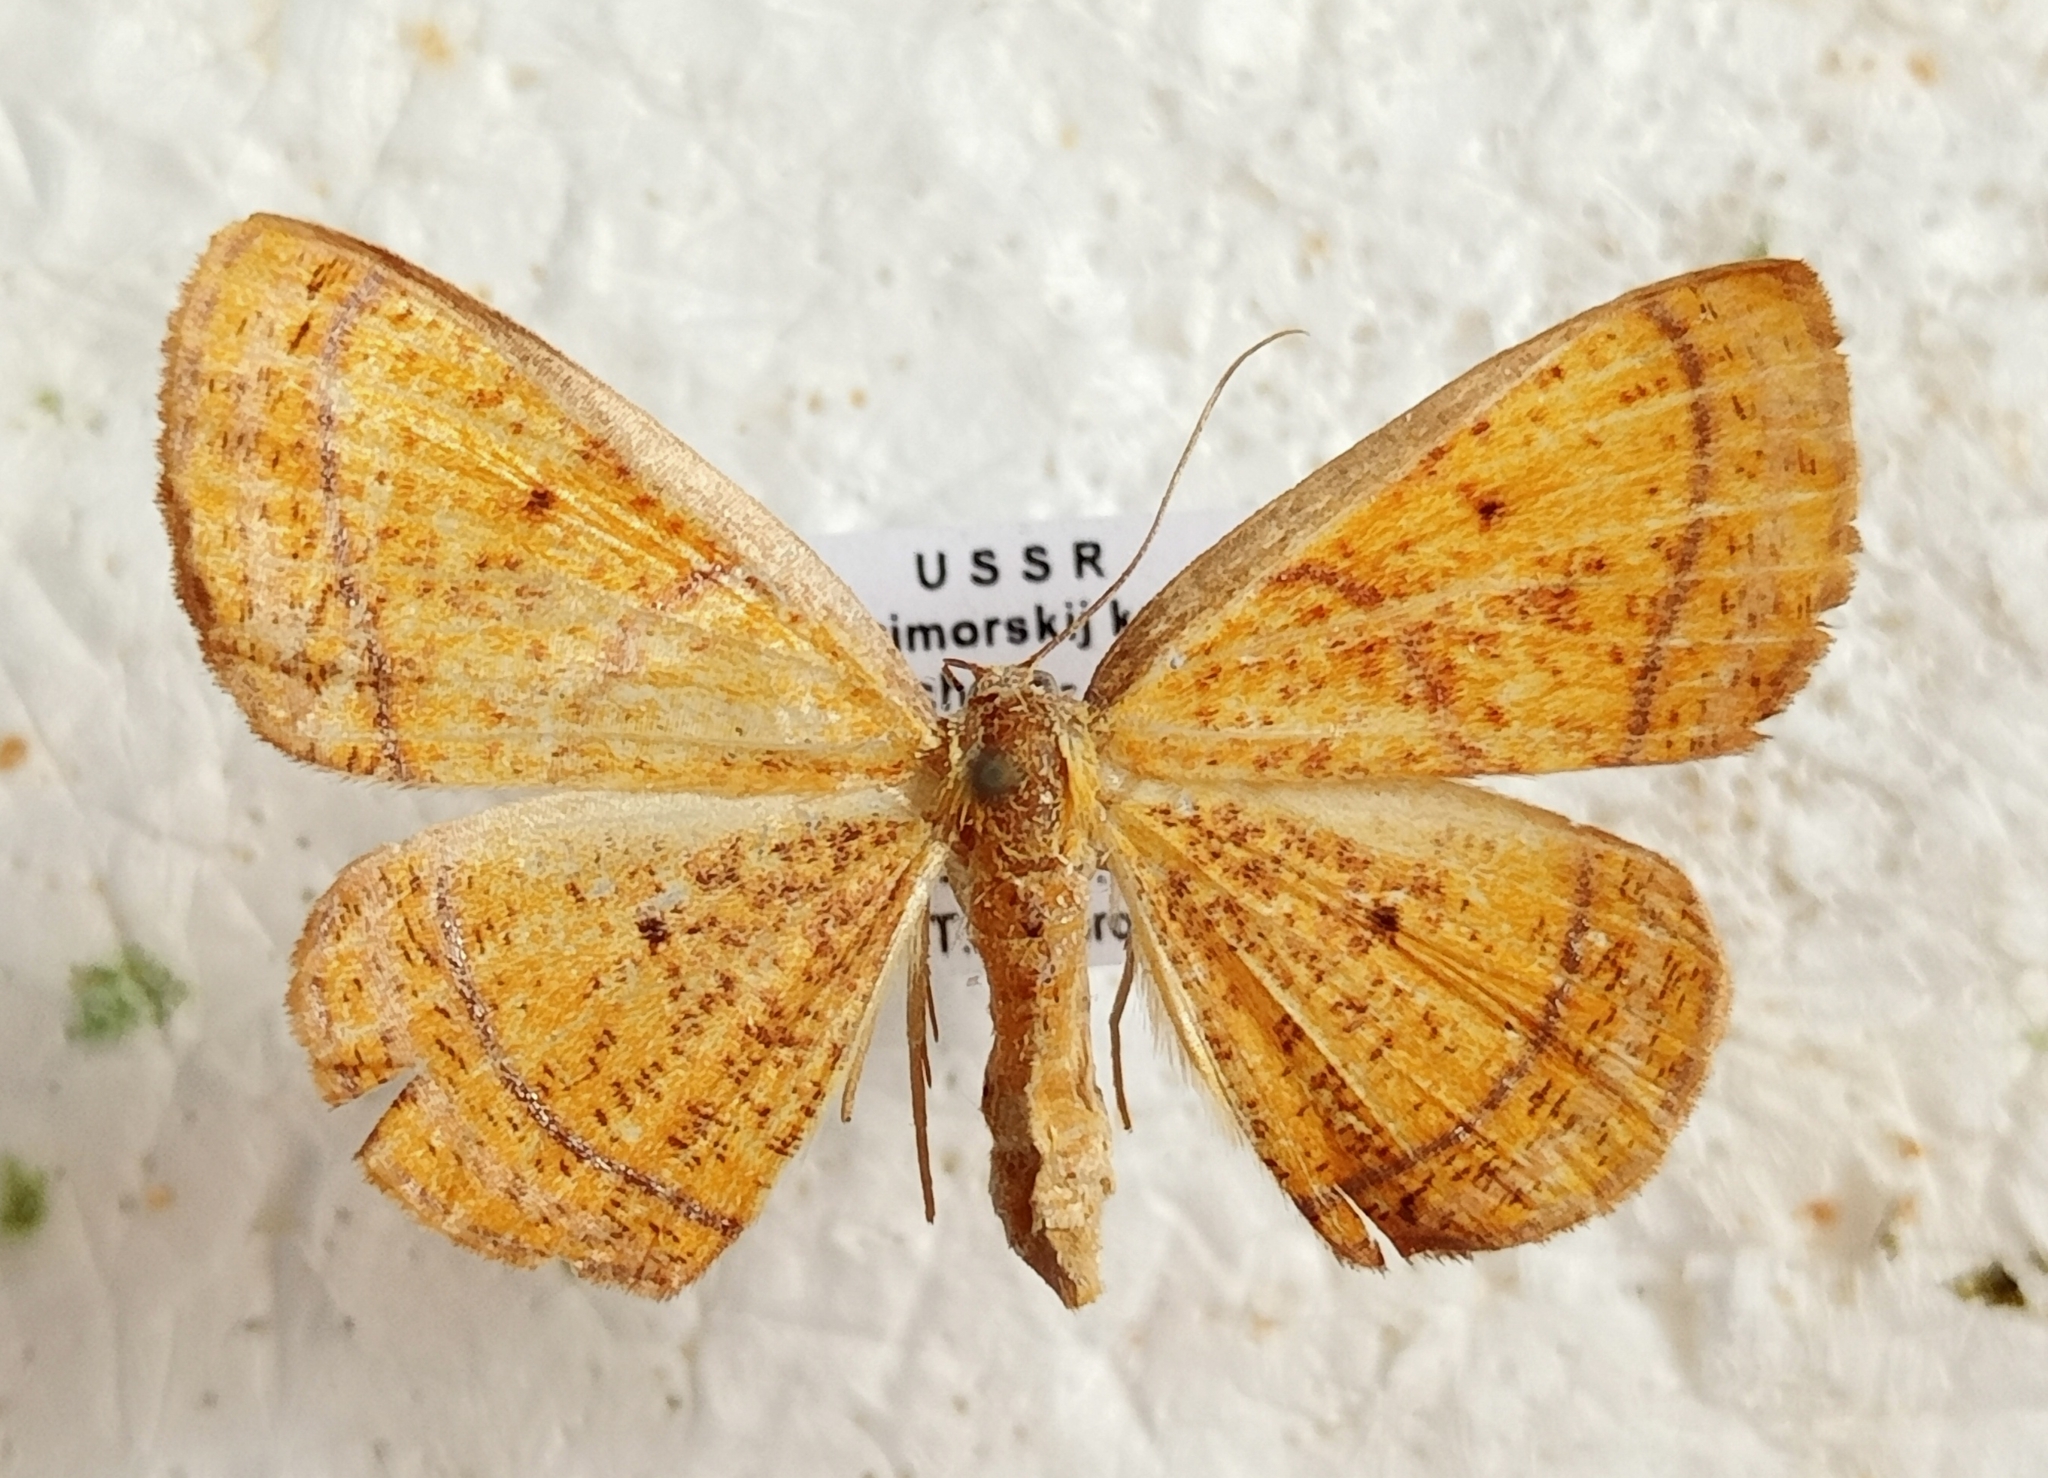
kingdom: Animalia
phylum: Arthropoda
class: Insecta
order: Lepidoptera
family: Geometridae
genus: Scardamia
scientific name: Scardamia aurantiacaria
